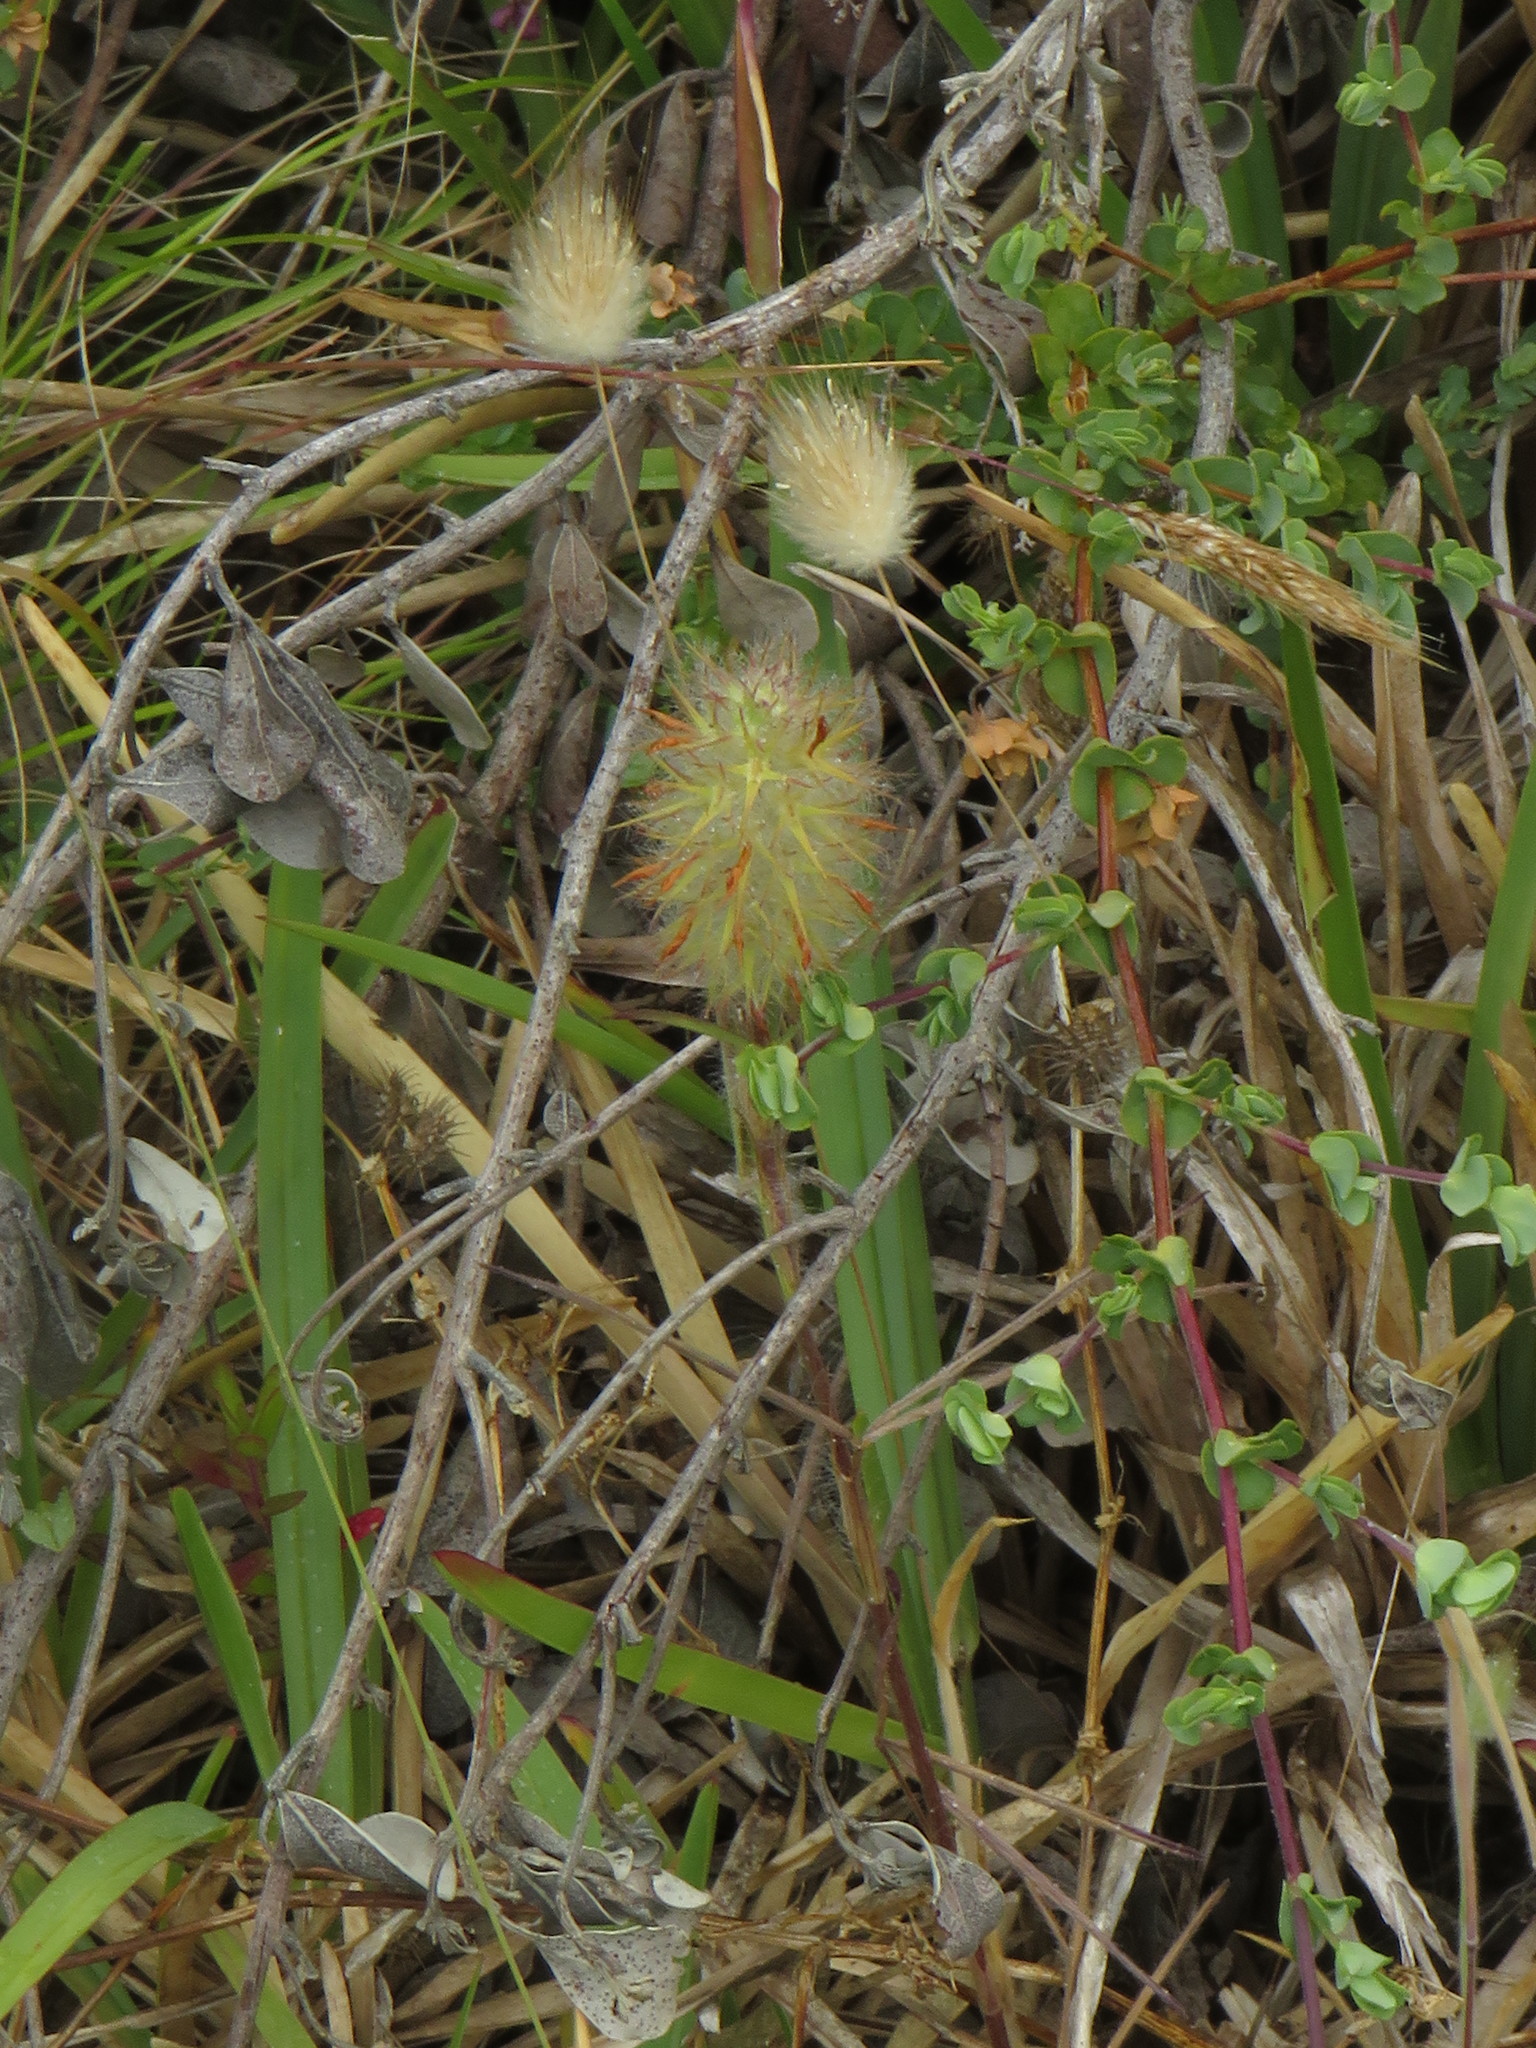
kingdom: Plantae
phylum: Tracheophyta
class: Magnoliopsida
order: Fabales
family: Fabaceae
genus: Trifolium
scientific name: Trifolium angustifolium
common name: Narrow clover
